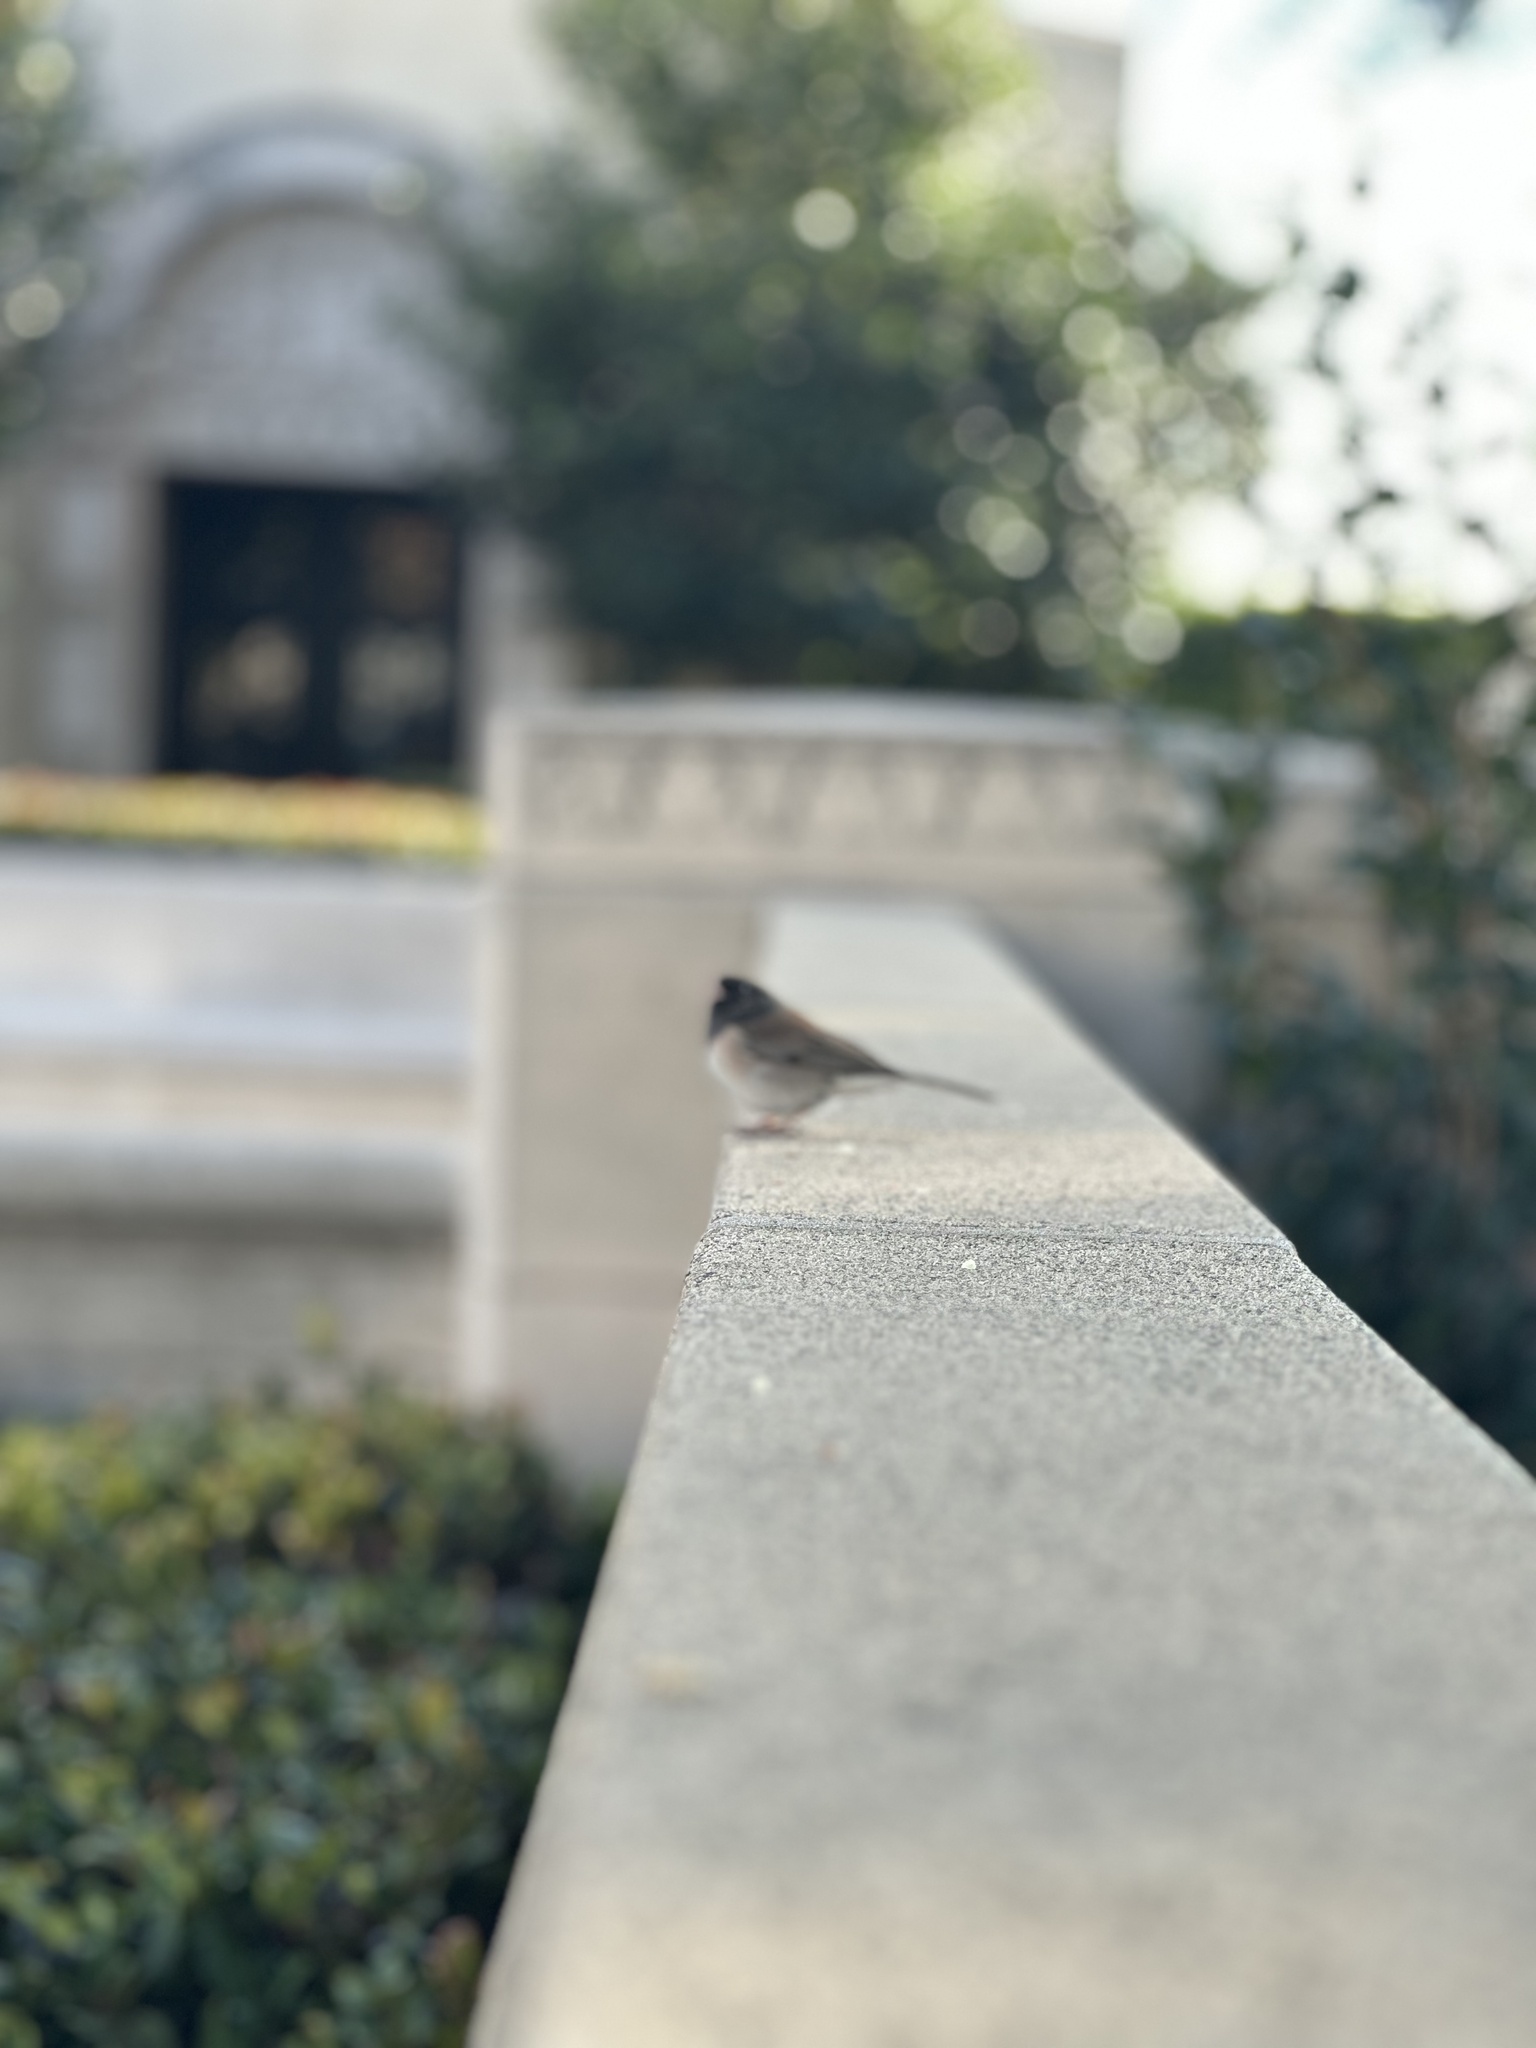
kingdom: Animalia
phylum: Chordata
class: Aves
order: Passeriformes
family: Passerellidae
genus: Junco
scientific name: Junco hyemalis
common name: Dark-eyed junco
